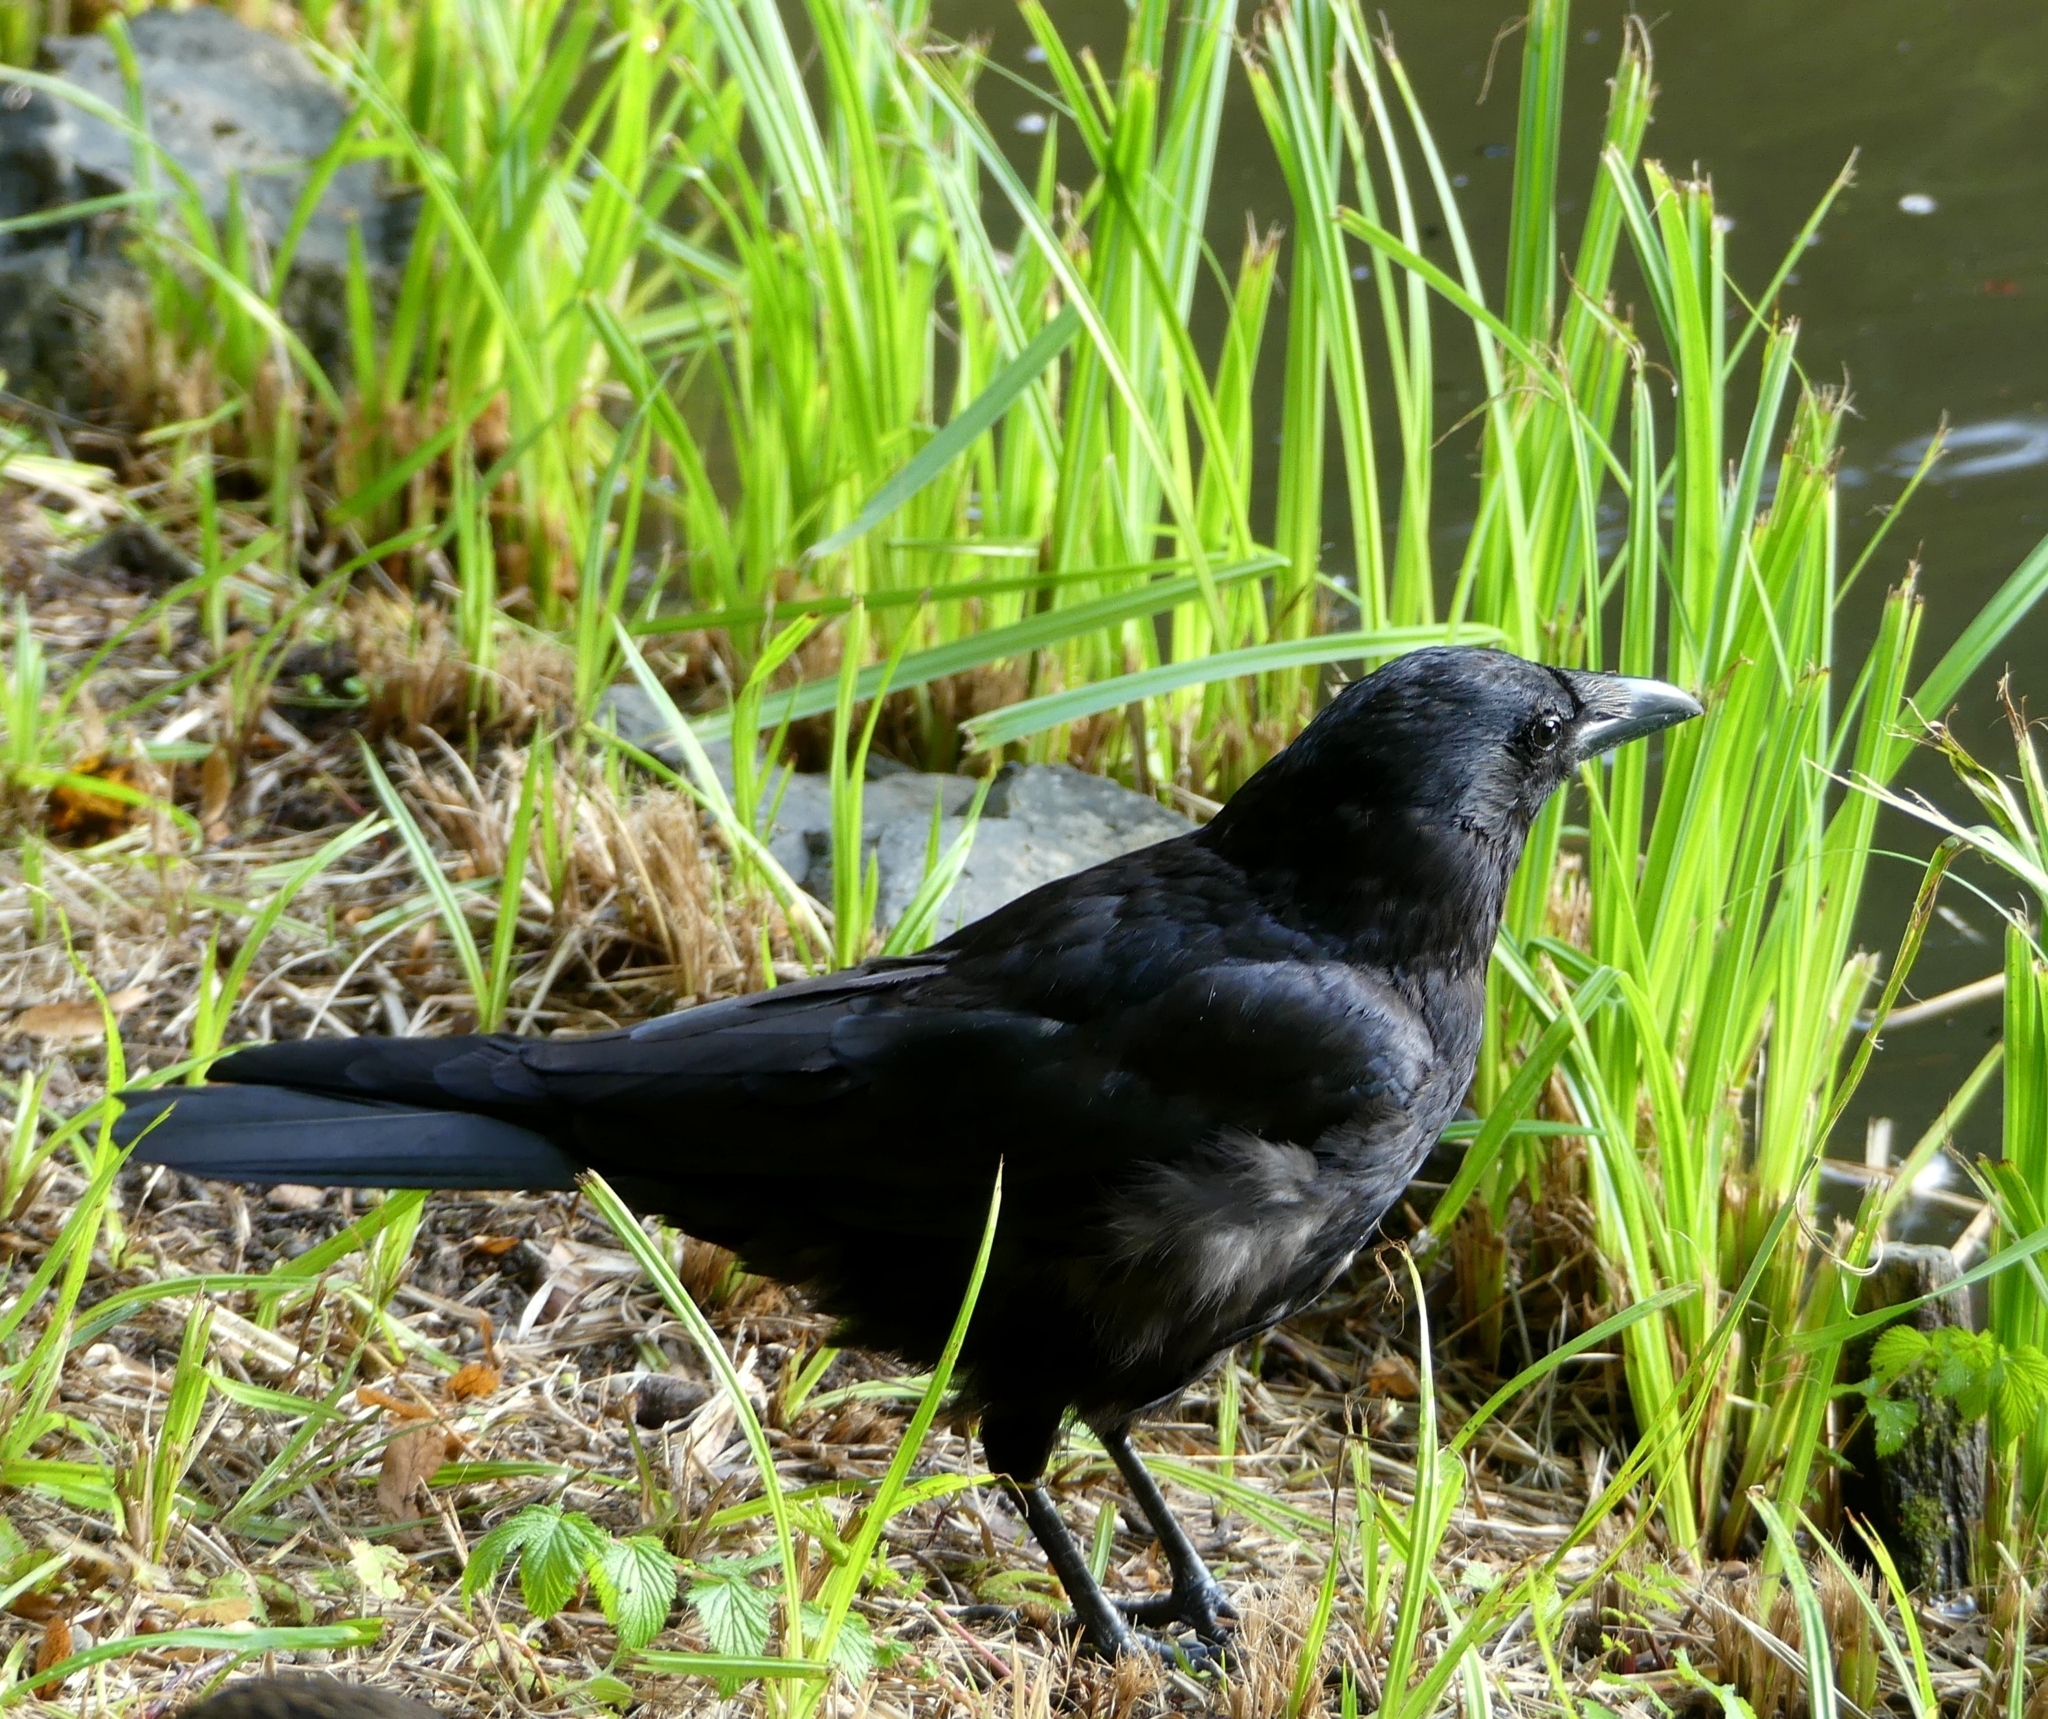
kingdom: Animalia
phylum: Chordata
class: Aves
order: Passeriformes
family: Corvidae
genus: Corvus
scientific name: Corvus corone
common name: Carrion crow
